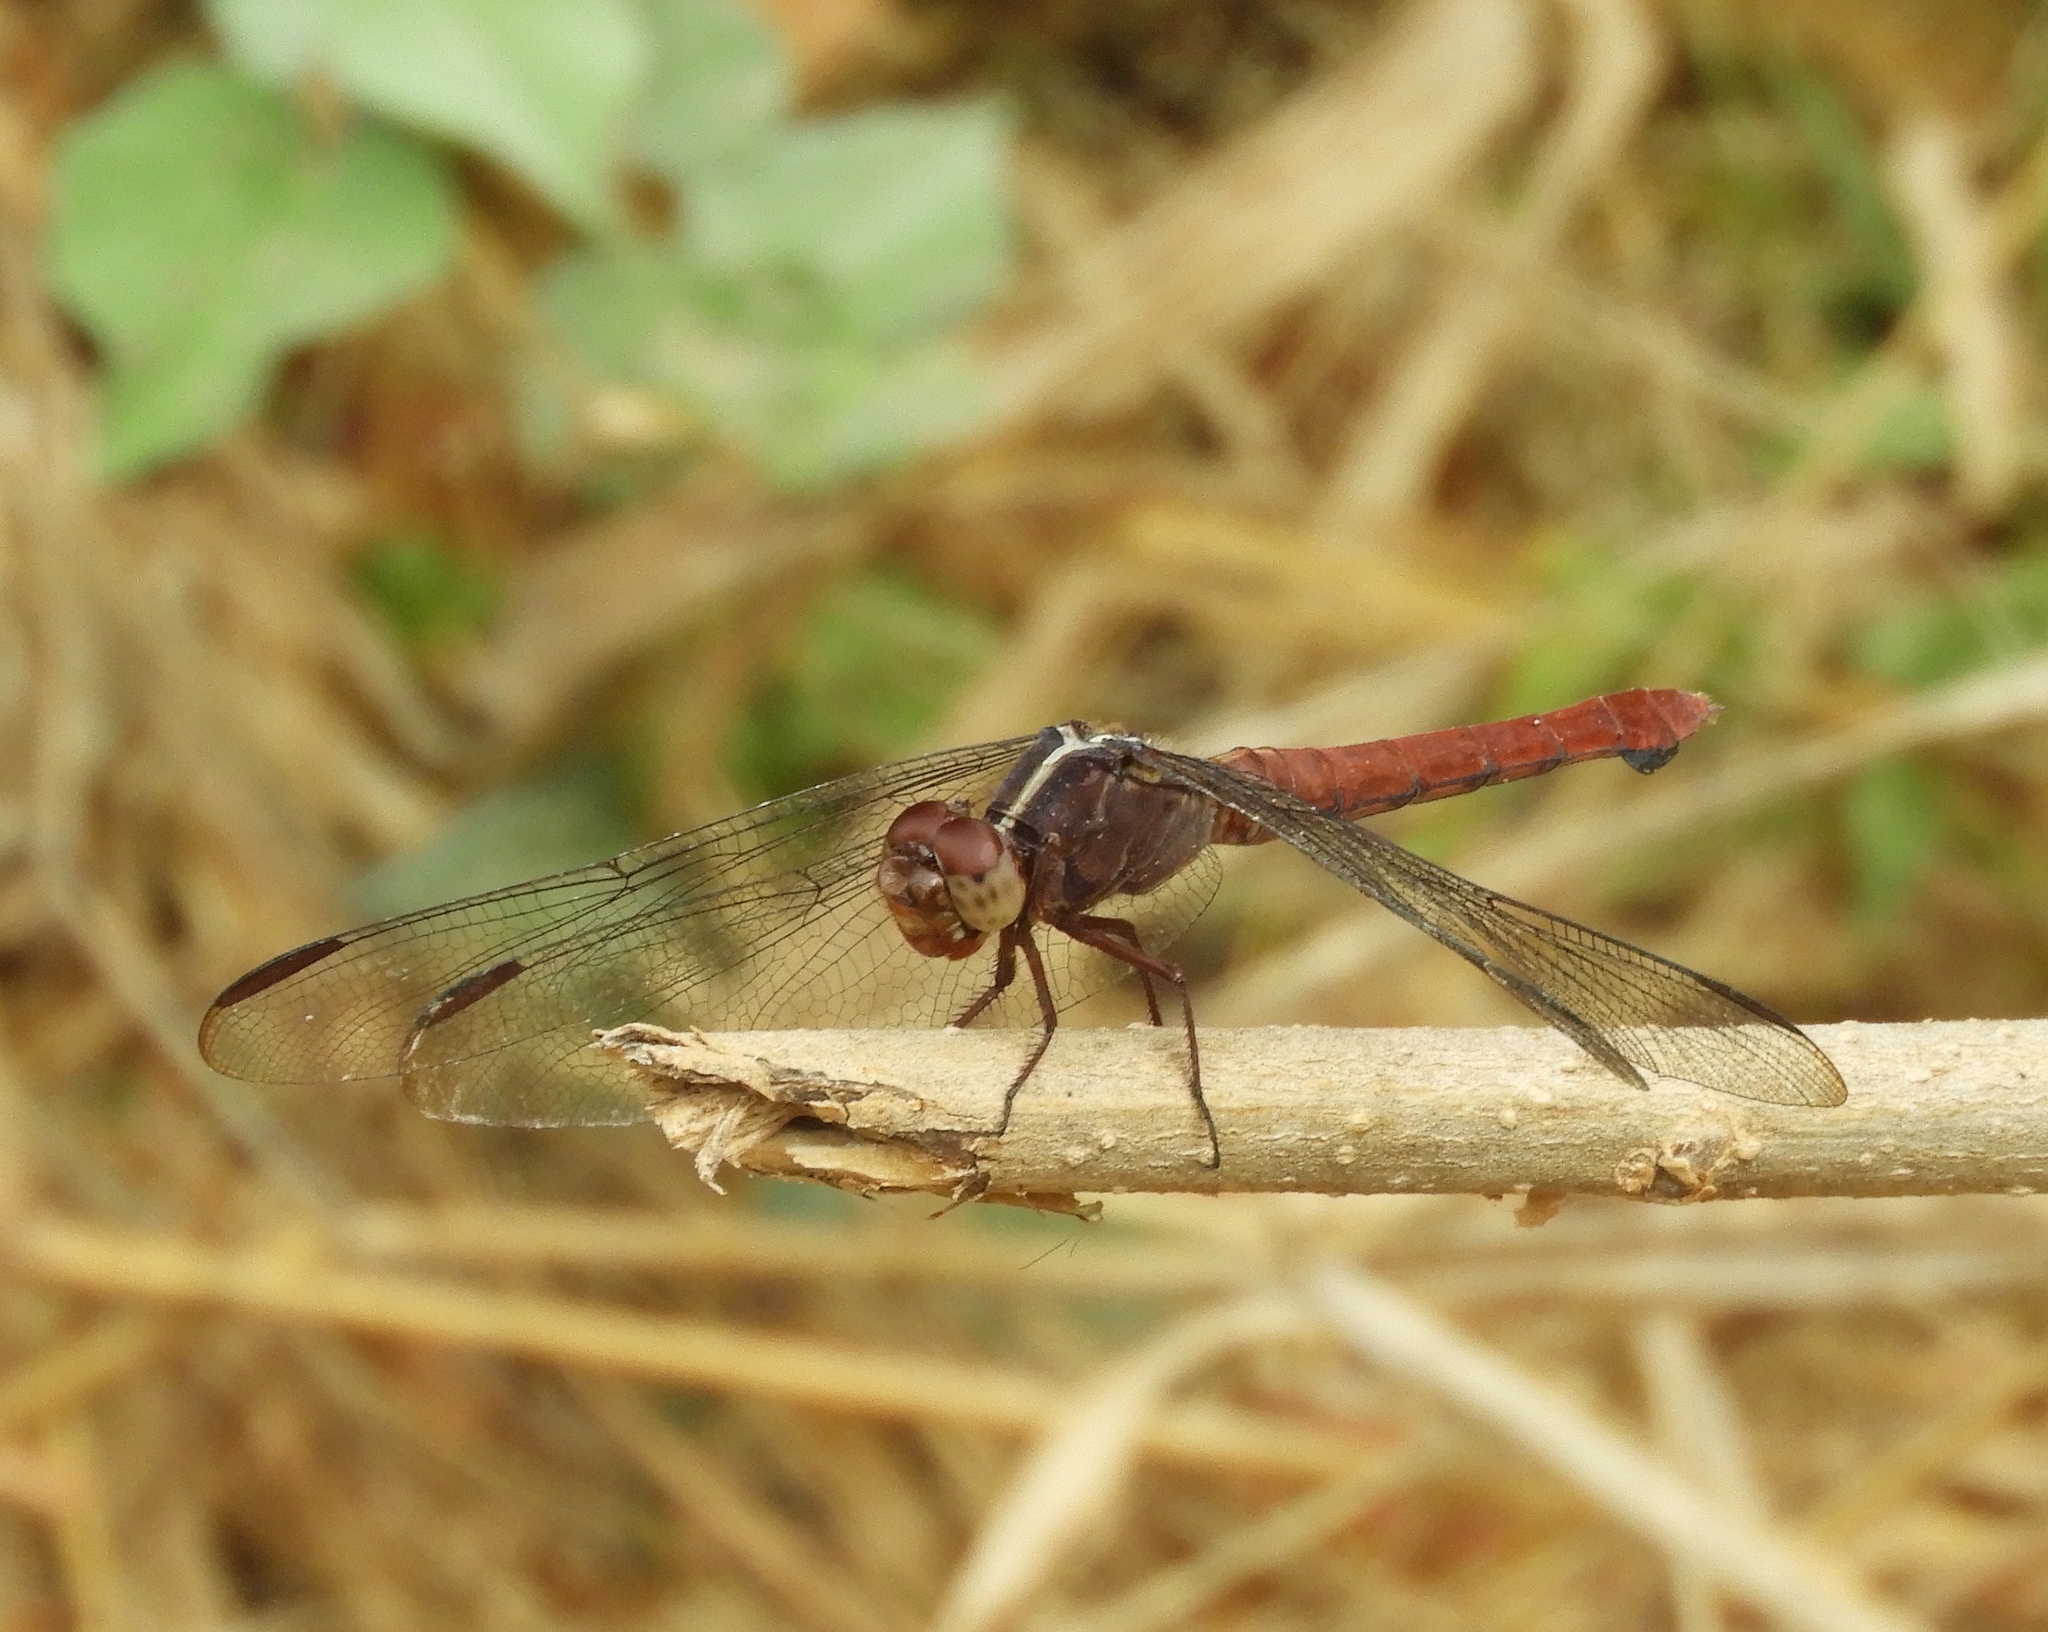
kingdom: Animalia
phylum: Arthropoda
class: Insecta
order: Odonata
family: Libellulidae
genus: Orthemis
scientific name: Orthemis ferruginea
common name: Roseate skimmer
